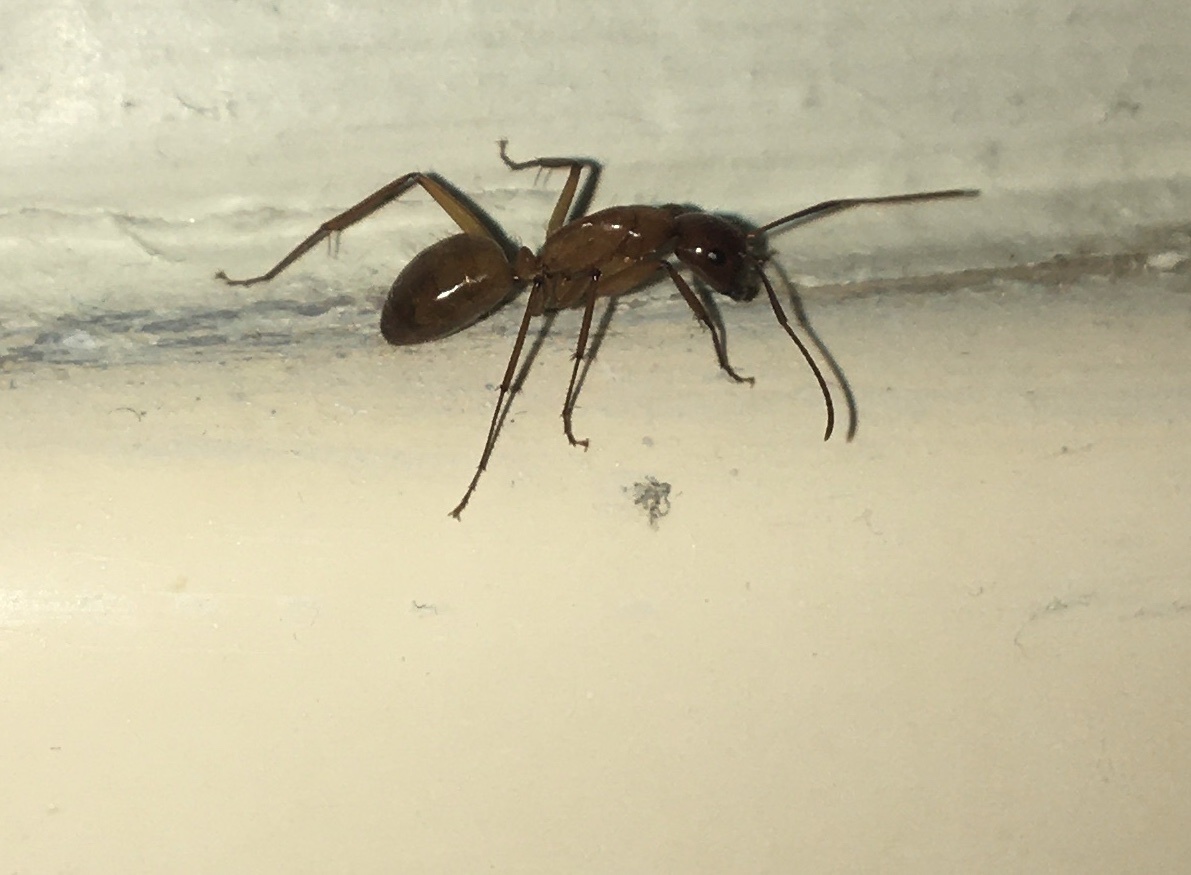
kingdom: Animalia
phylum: Arthropoda
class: Insecta
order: Hymenoptera
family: Formicidae
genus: Camponotus
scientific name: Camponotus castaneus
